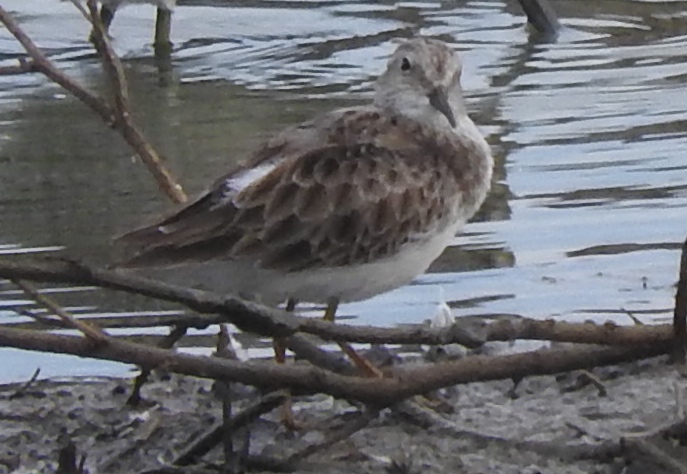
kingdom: Animalia
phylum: Chordata
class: Aves
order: Charadriiformes
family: Scolopacidae
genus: Calidris
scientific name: Calidris minutilla
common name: Least sandpiper
